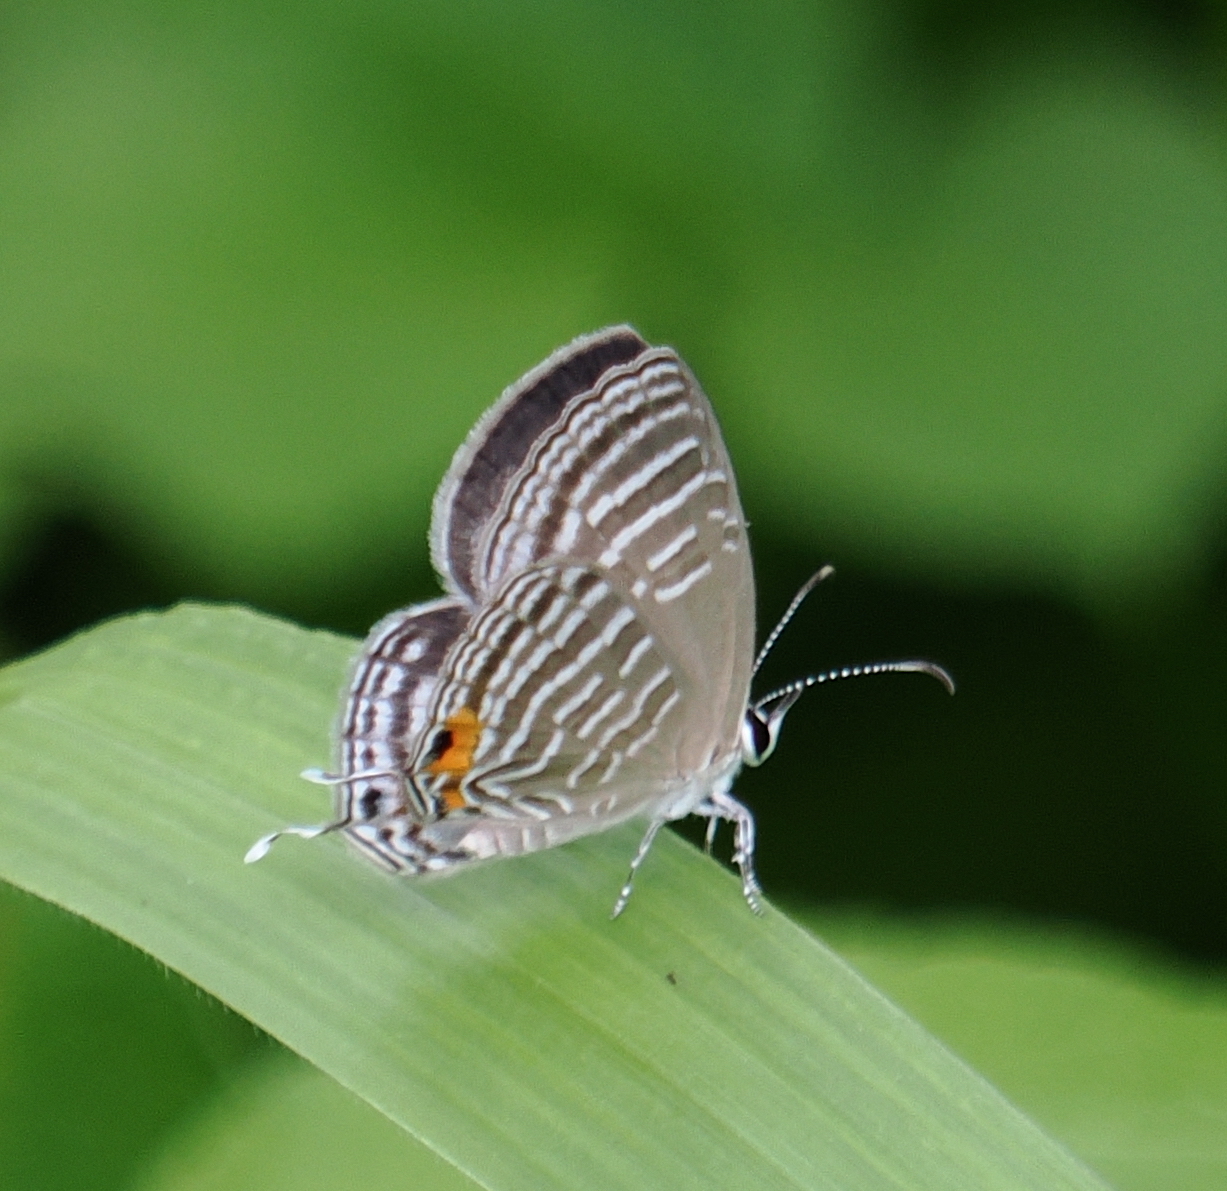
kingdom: Animalia
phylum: Arthropoda
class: Insecta
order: Lepidoptera
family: Lycaenidae
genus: Jamides
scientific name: Jamides celeno
